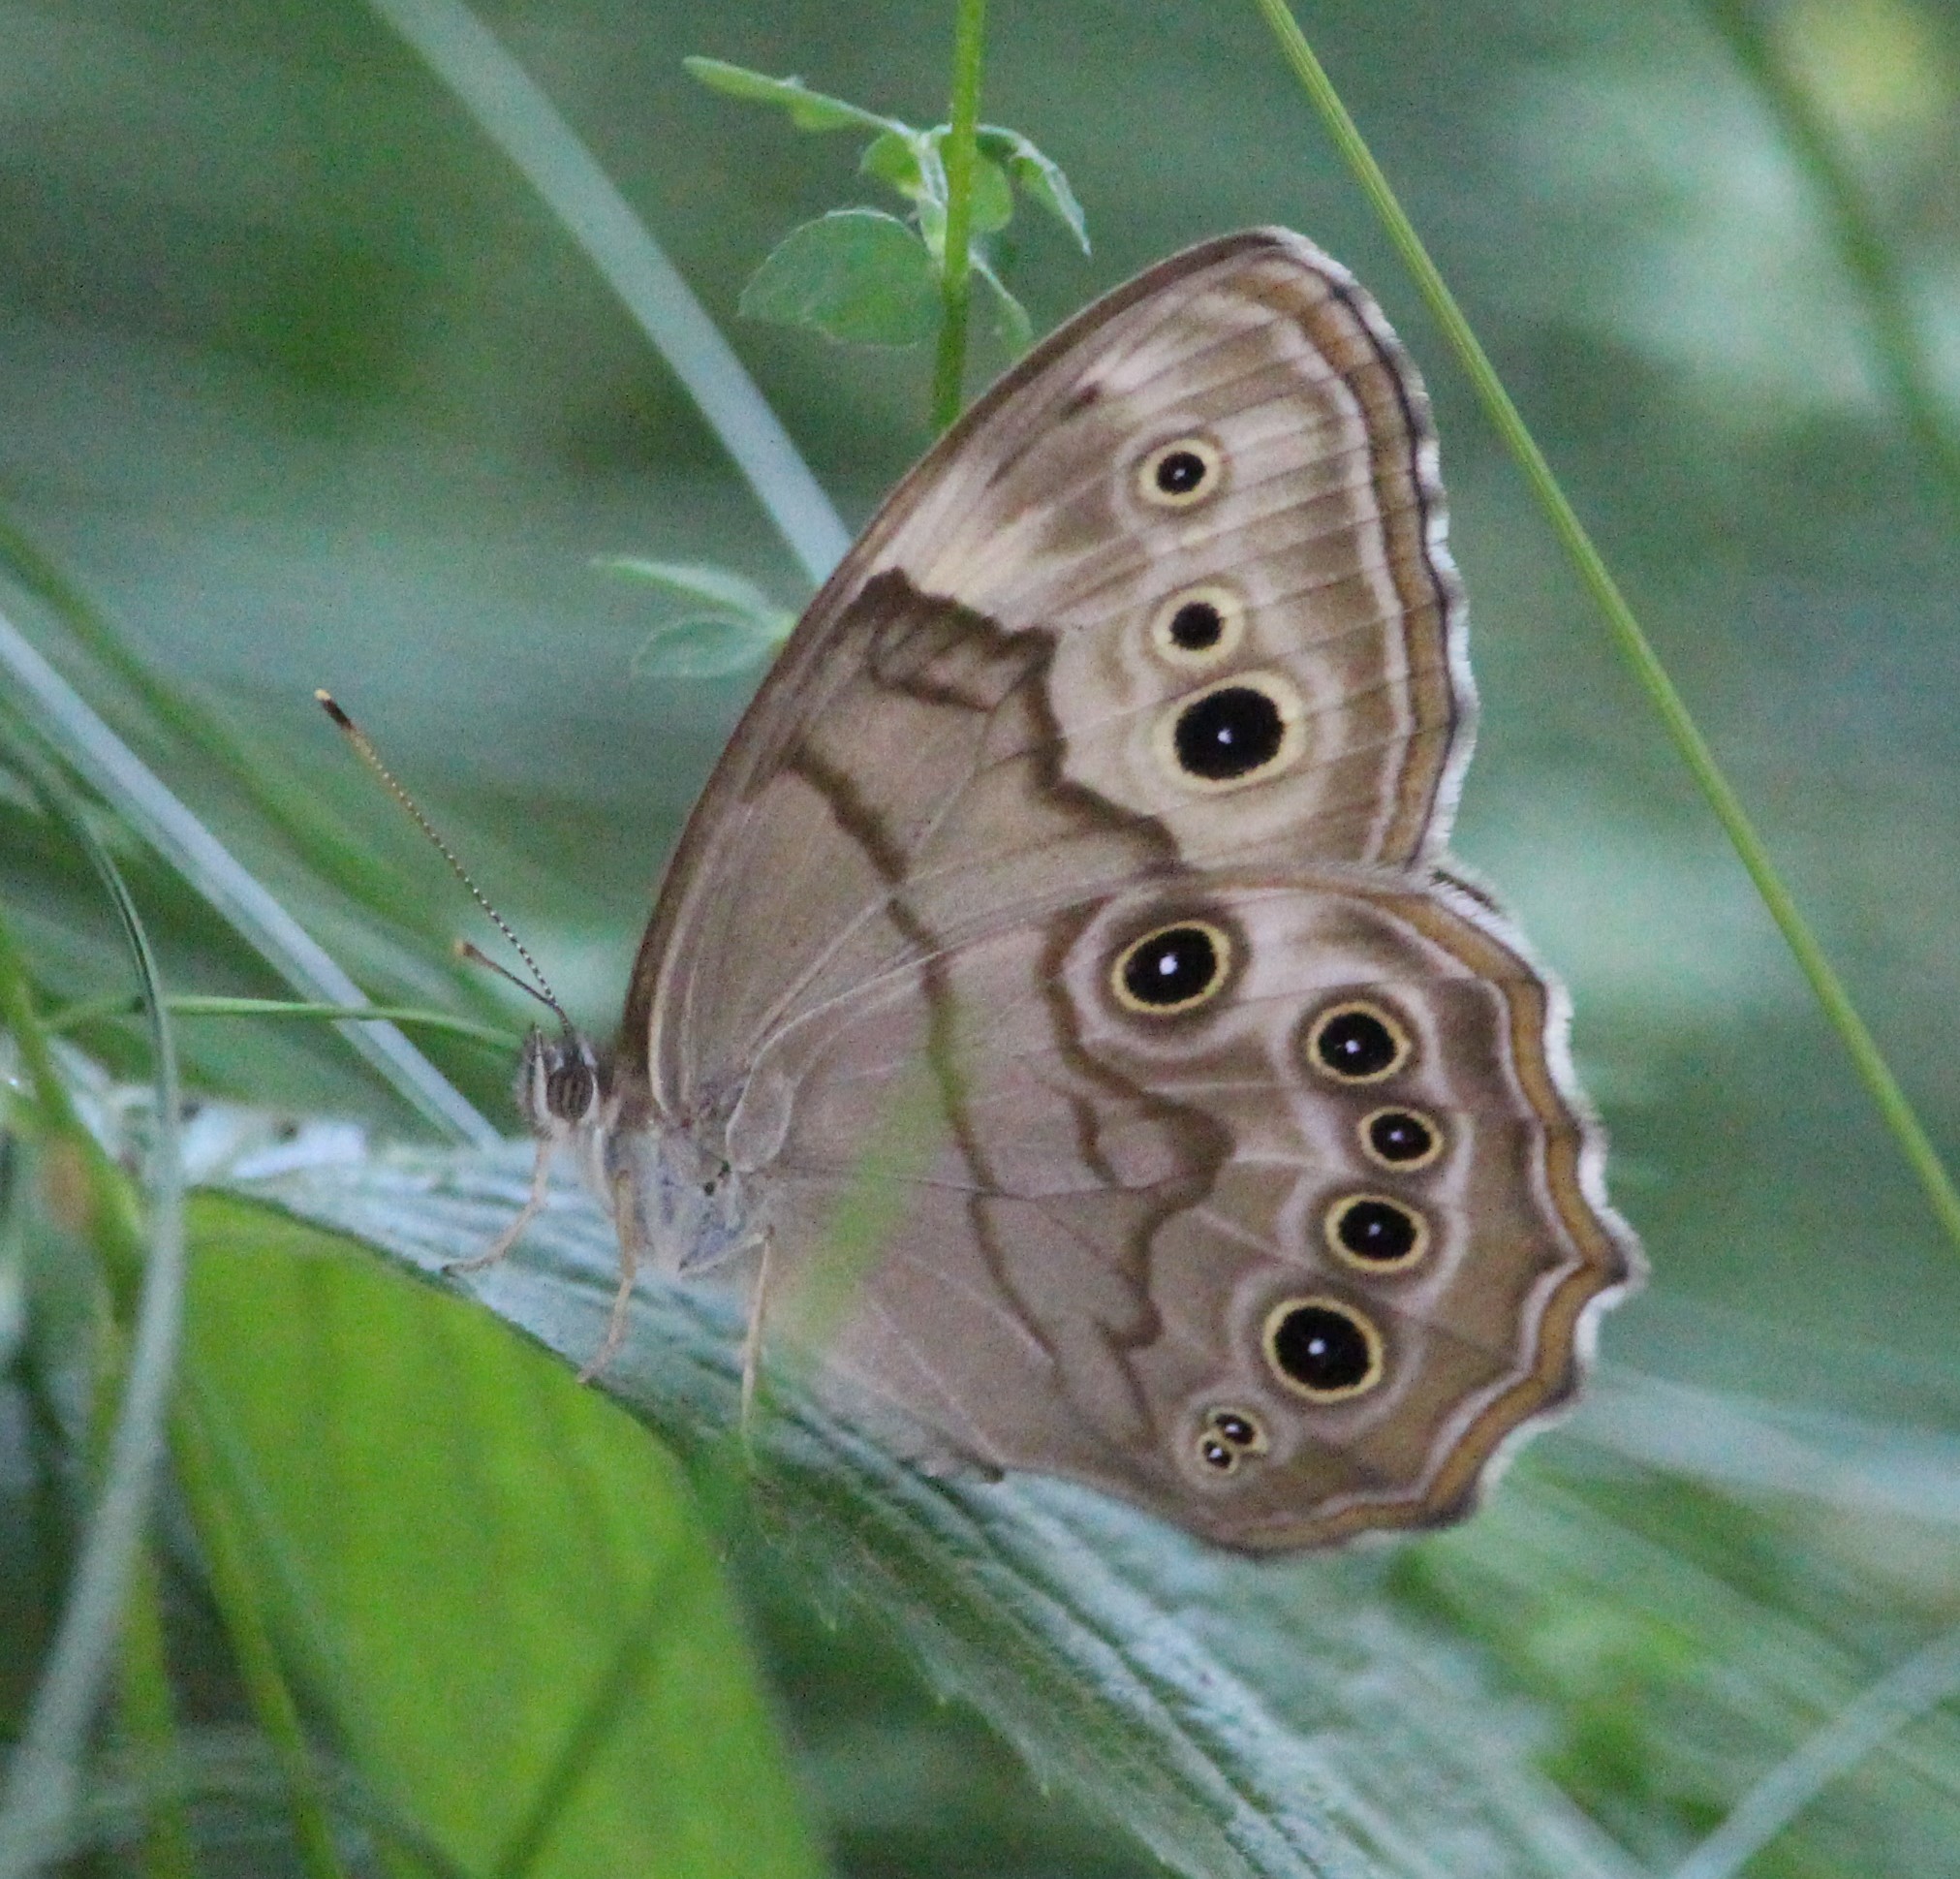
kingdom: Animalia
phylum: Arthropoda
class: Insecta
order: Lepidoptera
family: Nymphalidae
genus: Lethe
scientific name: Lethe anthedon
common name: Northern pearly-eye
